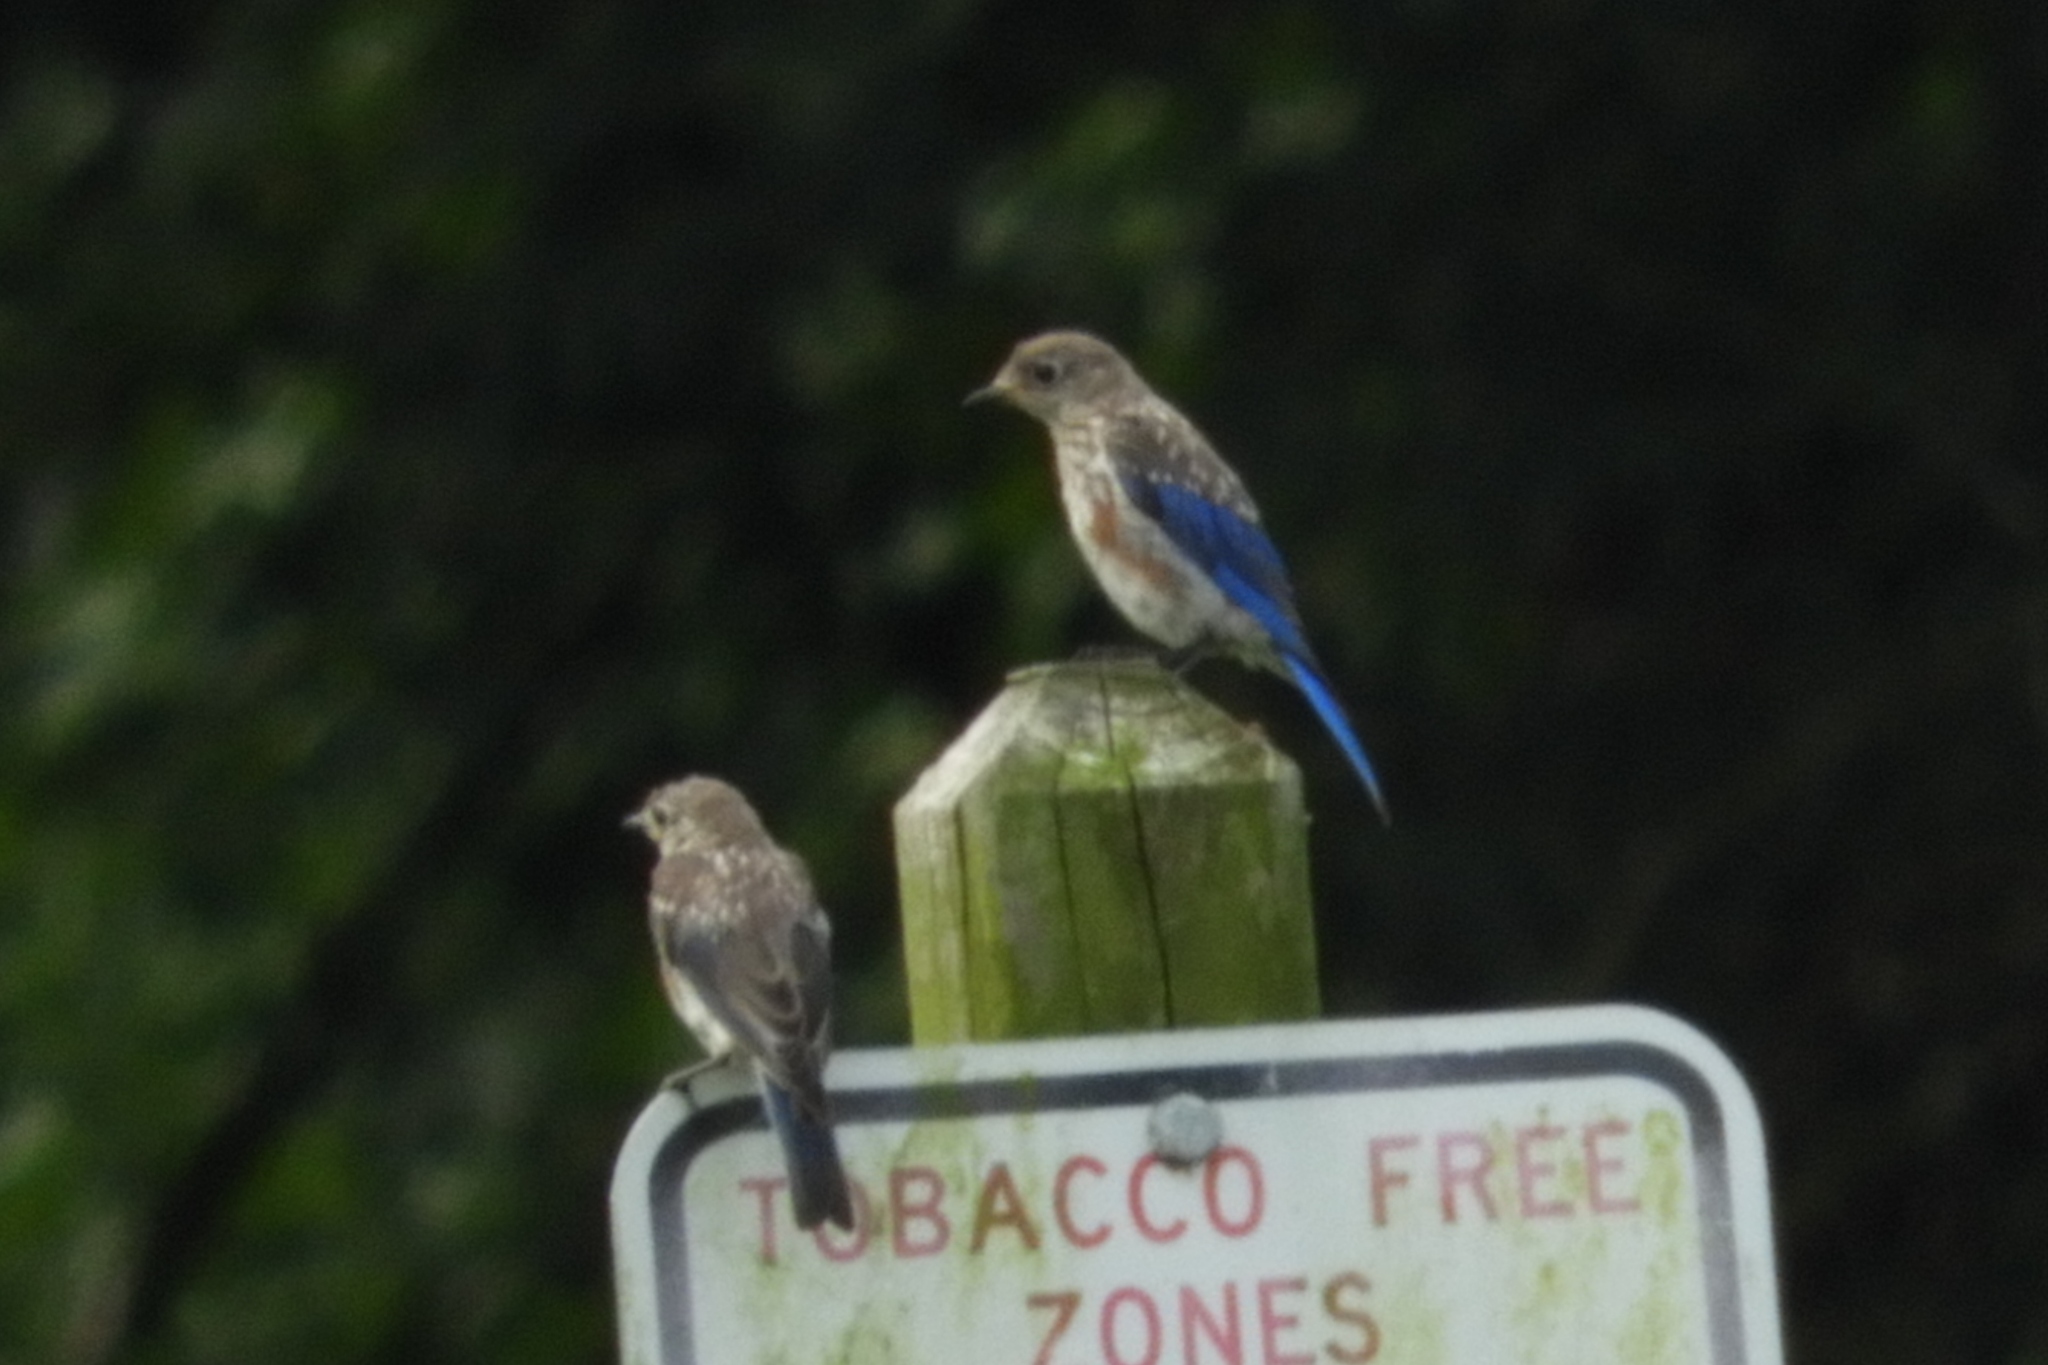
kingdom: Animalia
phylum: Chordata
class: Aves
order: Passeriformes
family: Turdidae
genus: Sialia
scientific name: Sialia sialis
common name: Eastern bluebird
